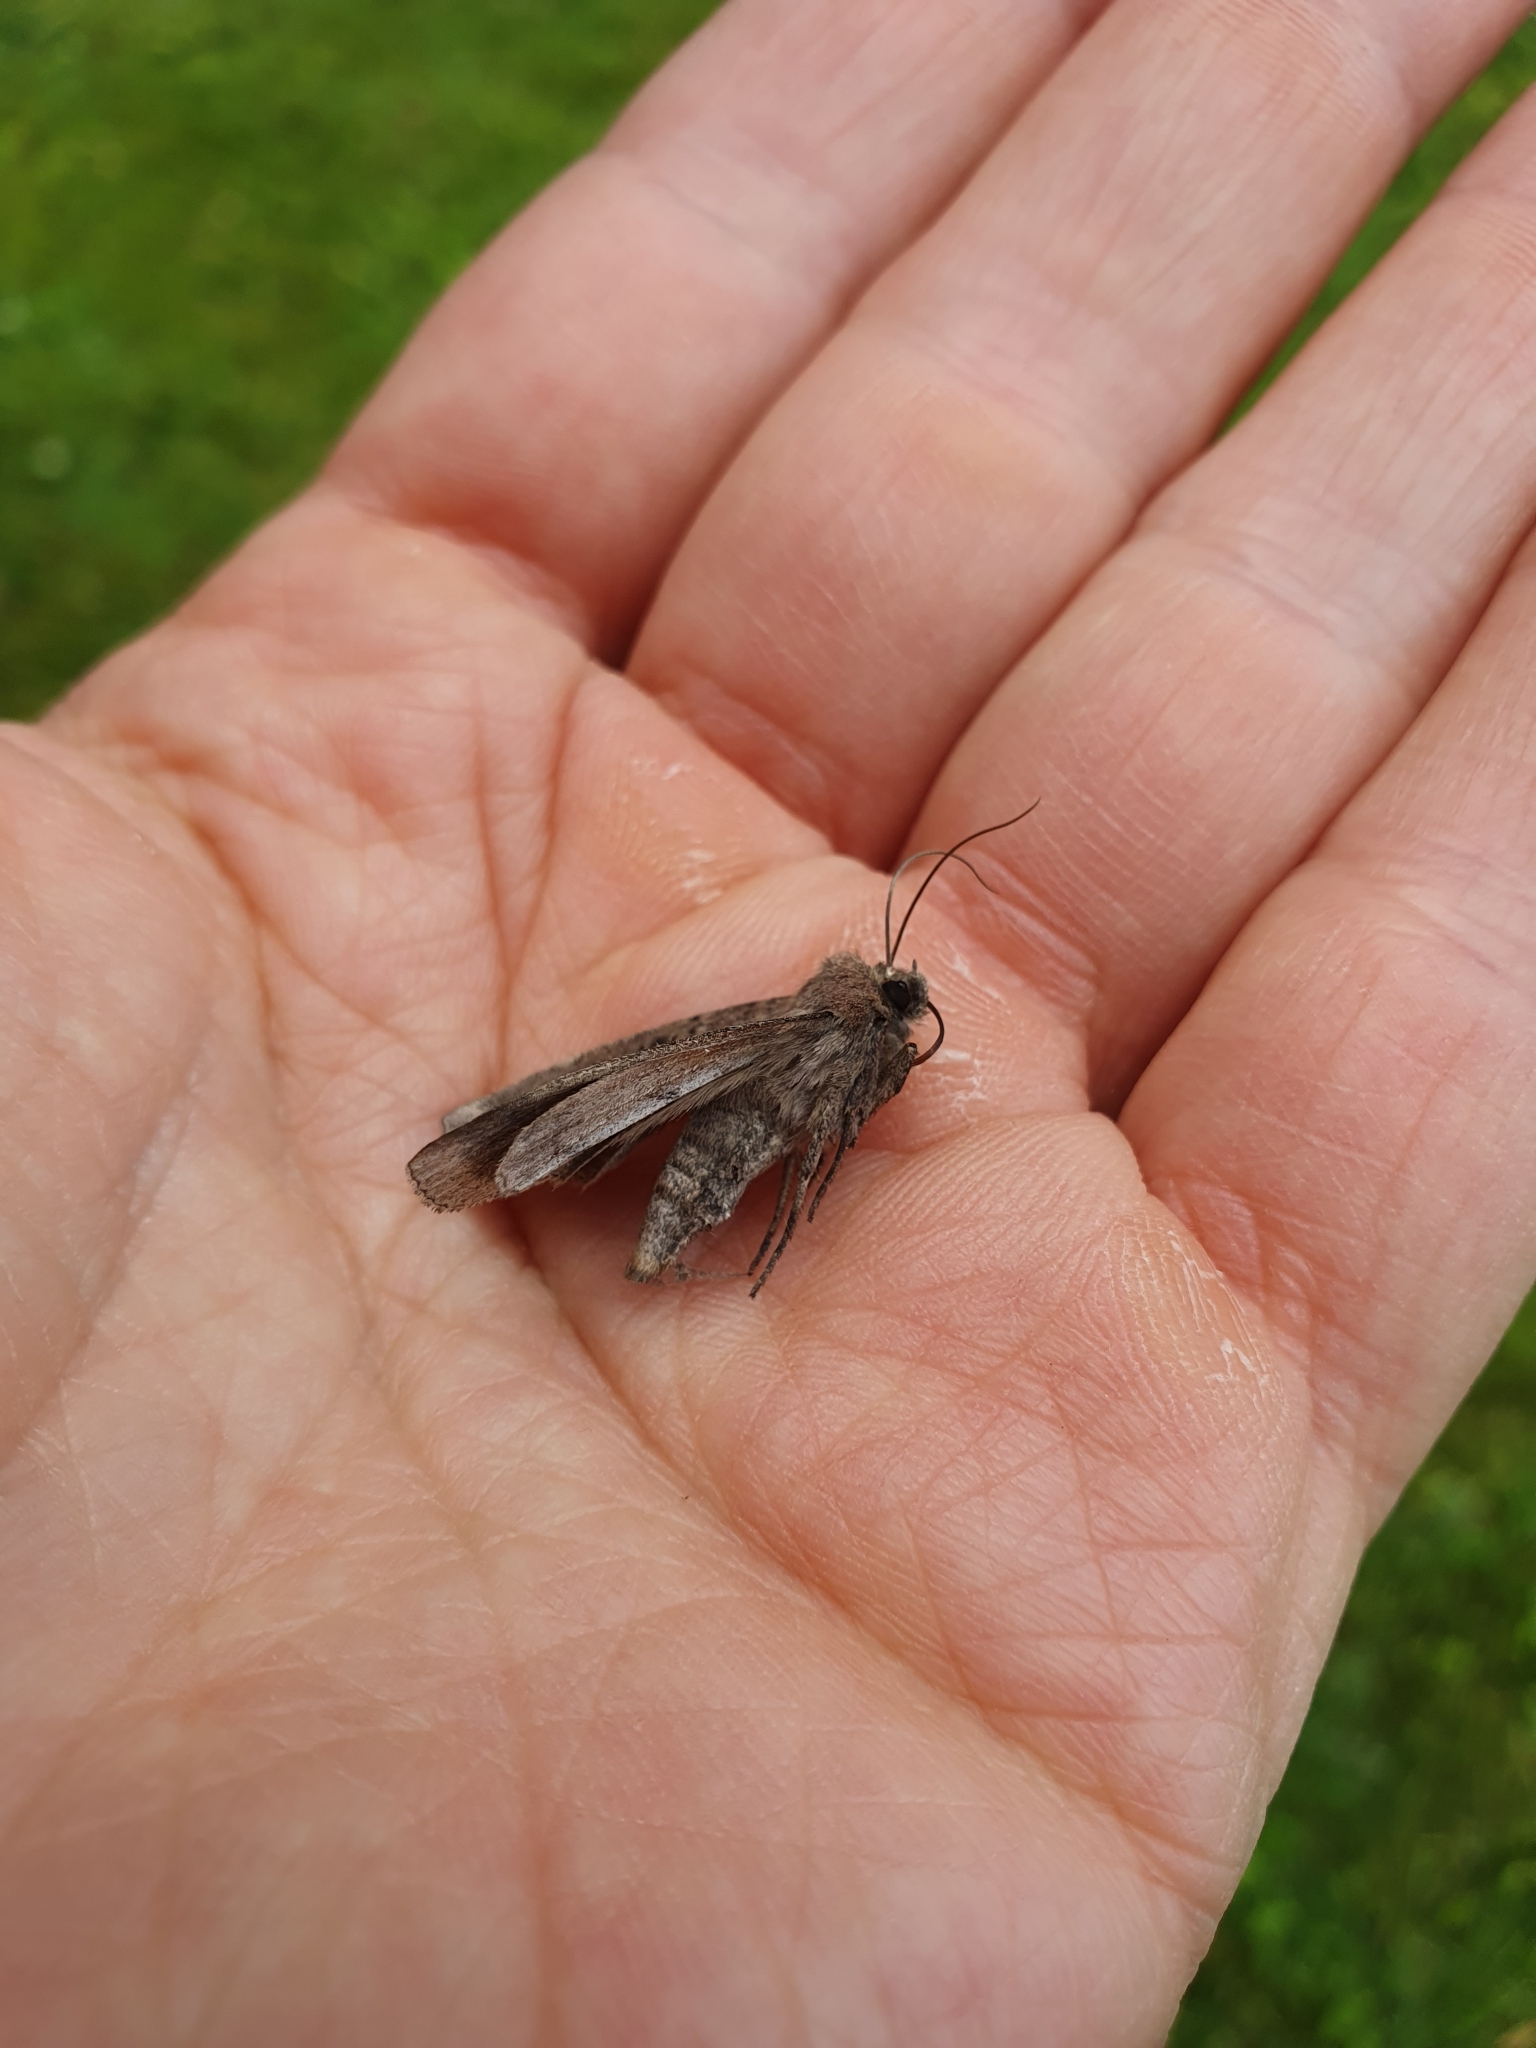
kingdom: Animalia
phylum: Arthropoda
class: Insecta
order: Lepidoptera
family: Noctuidae
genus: Graphiphora
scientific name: Graphiphora augur
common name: Double dart
